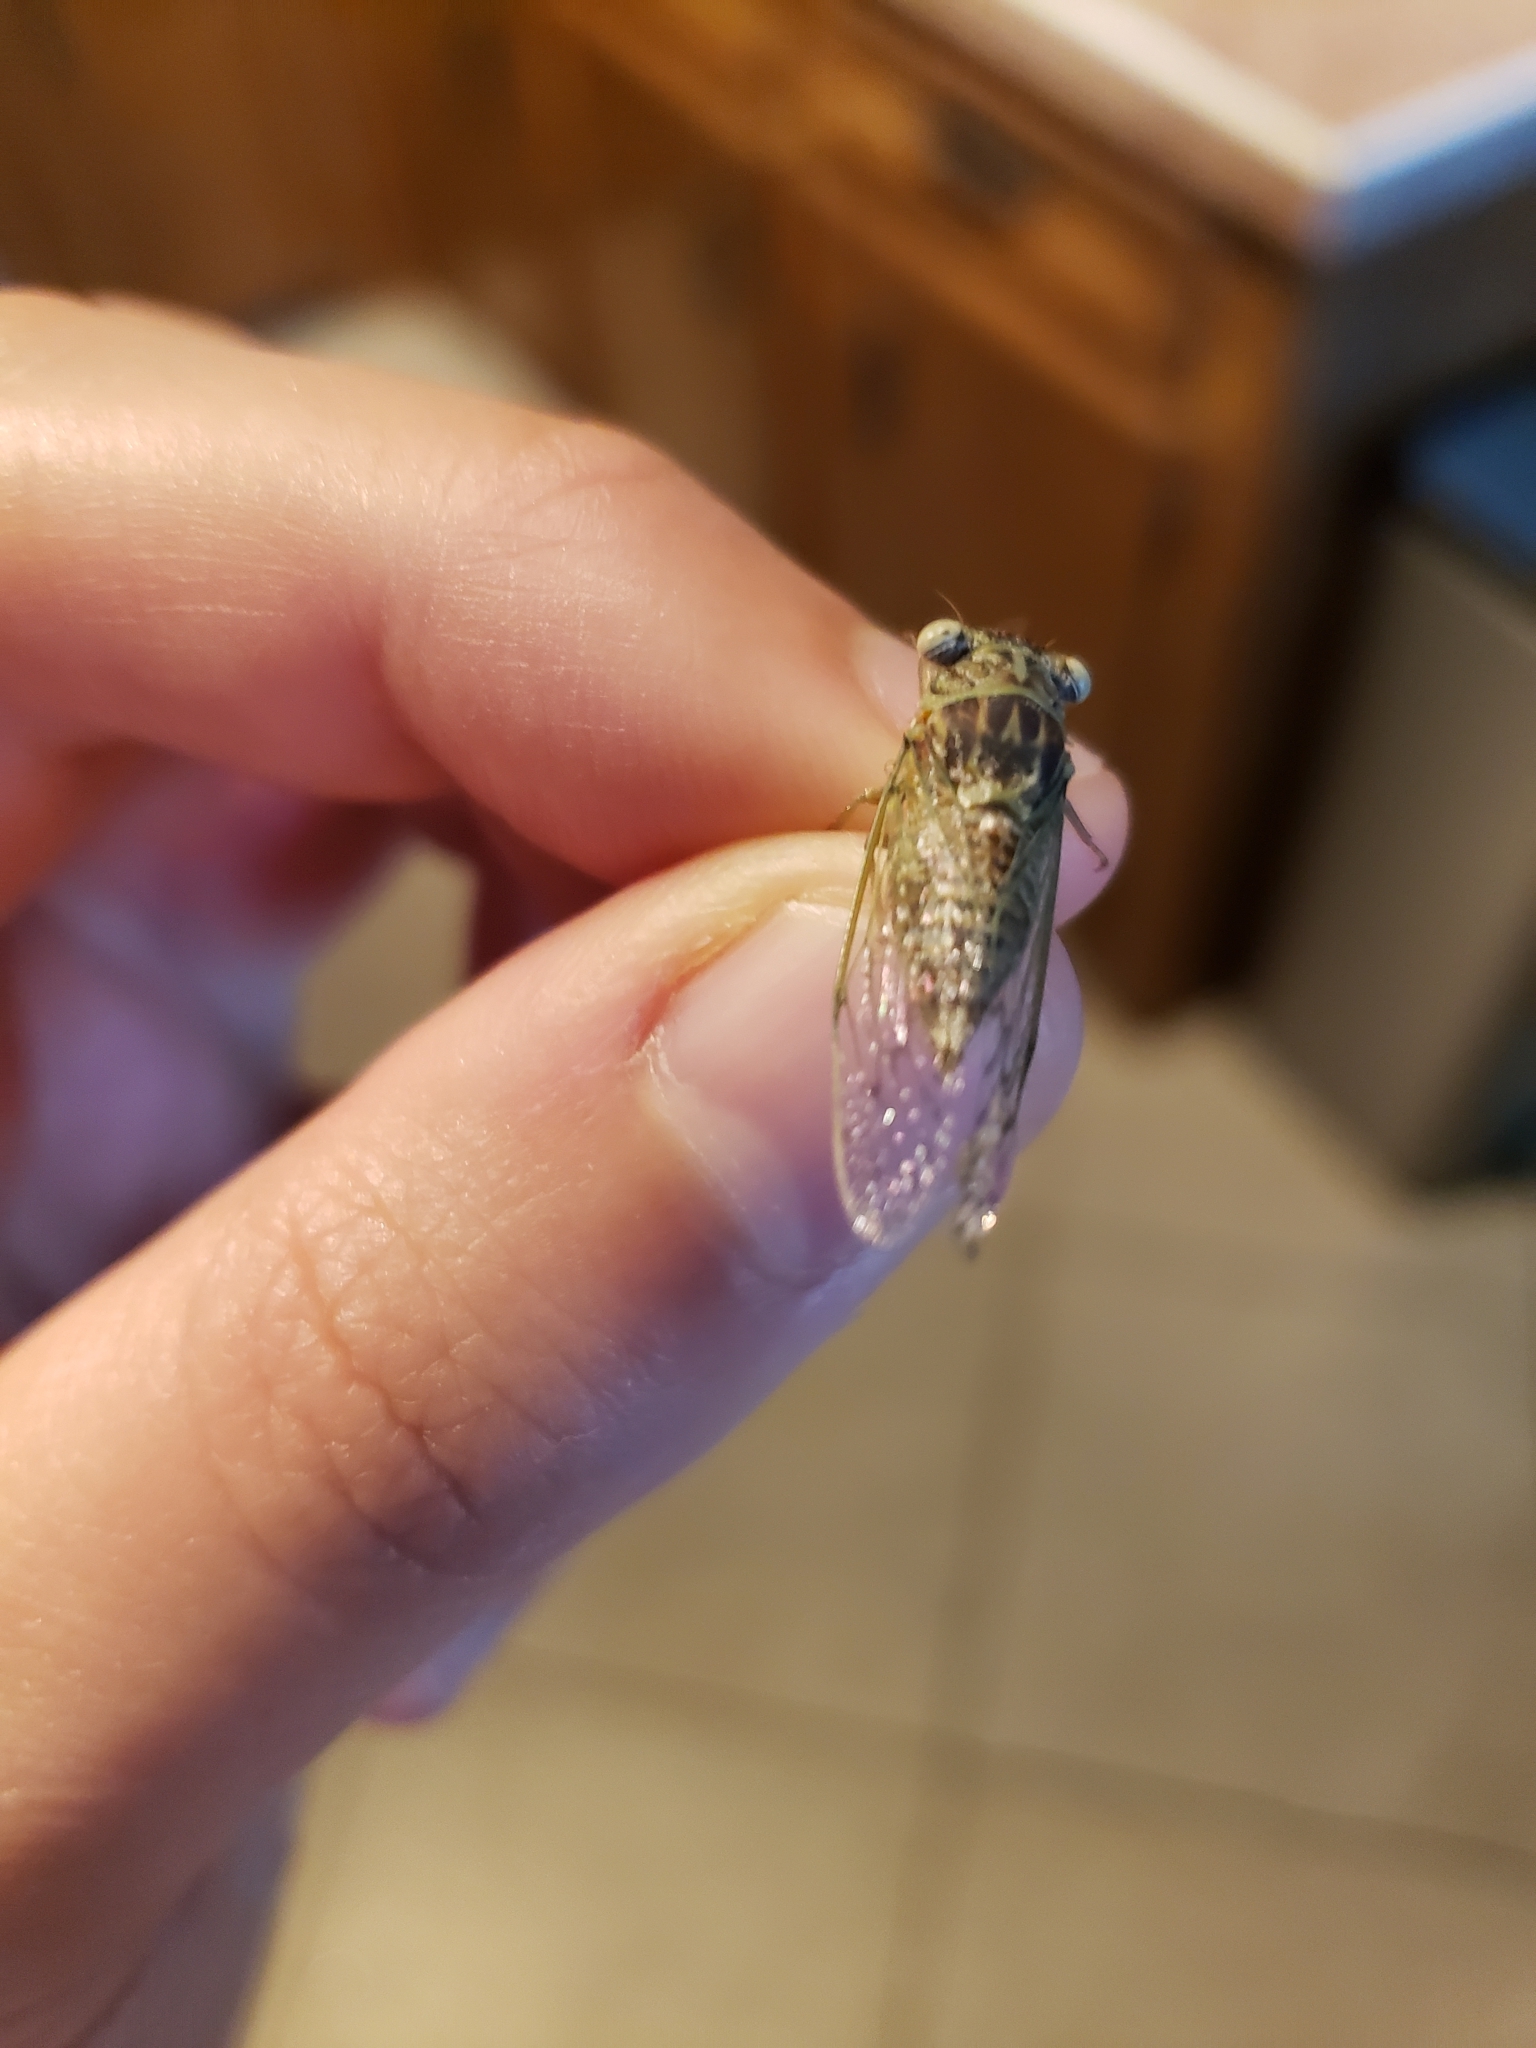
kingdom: Animalia
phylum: Arthropoda
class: Insecta
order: Hemiptera
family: Cicadidae
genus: Pacarina
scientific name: Pacarina puella
